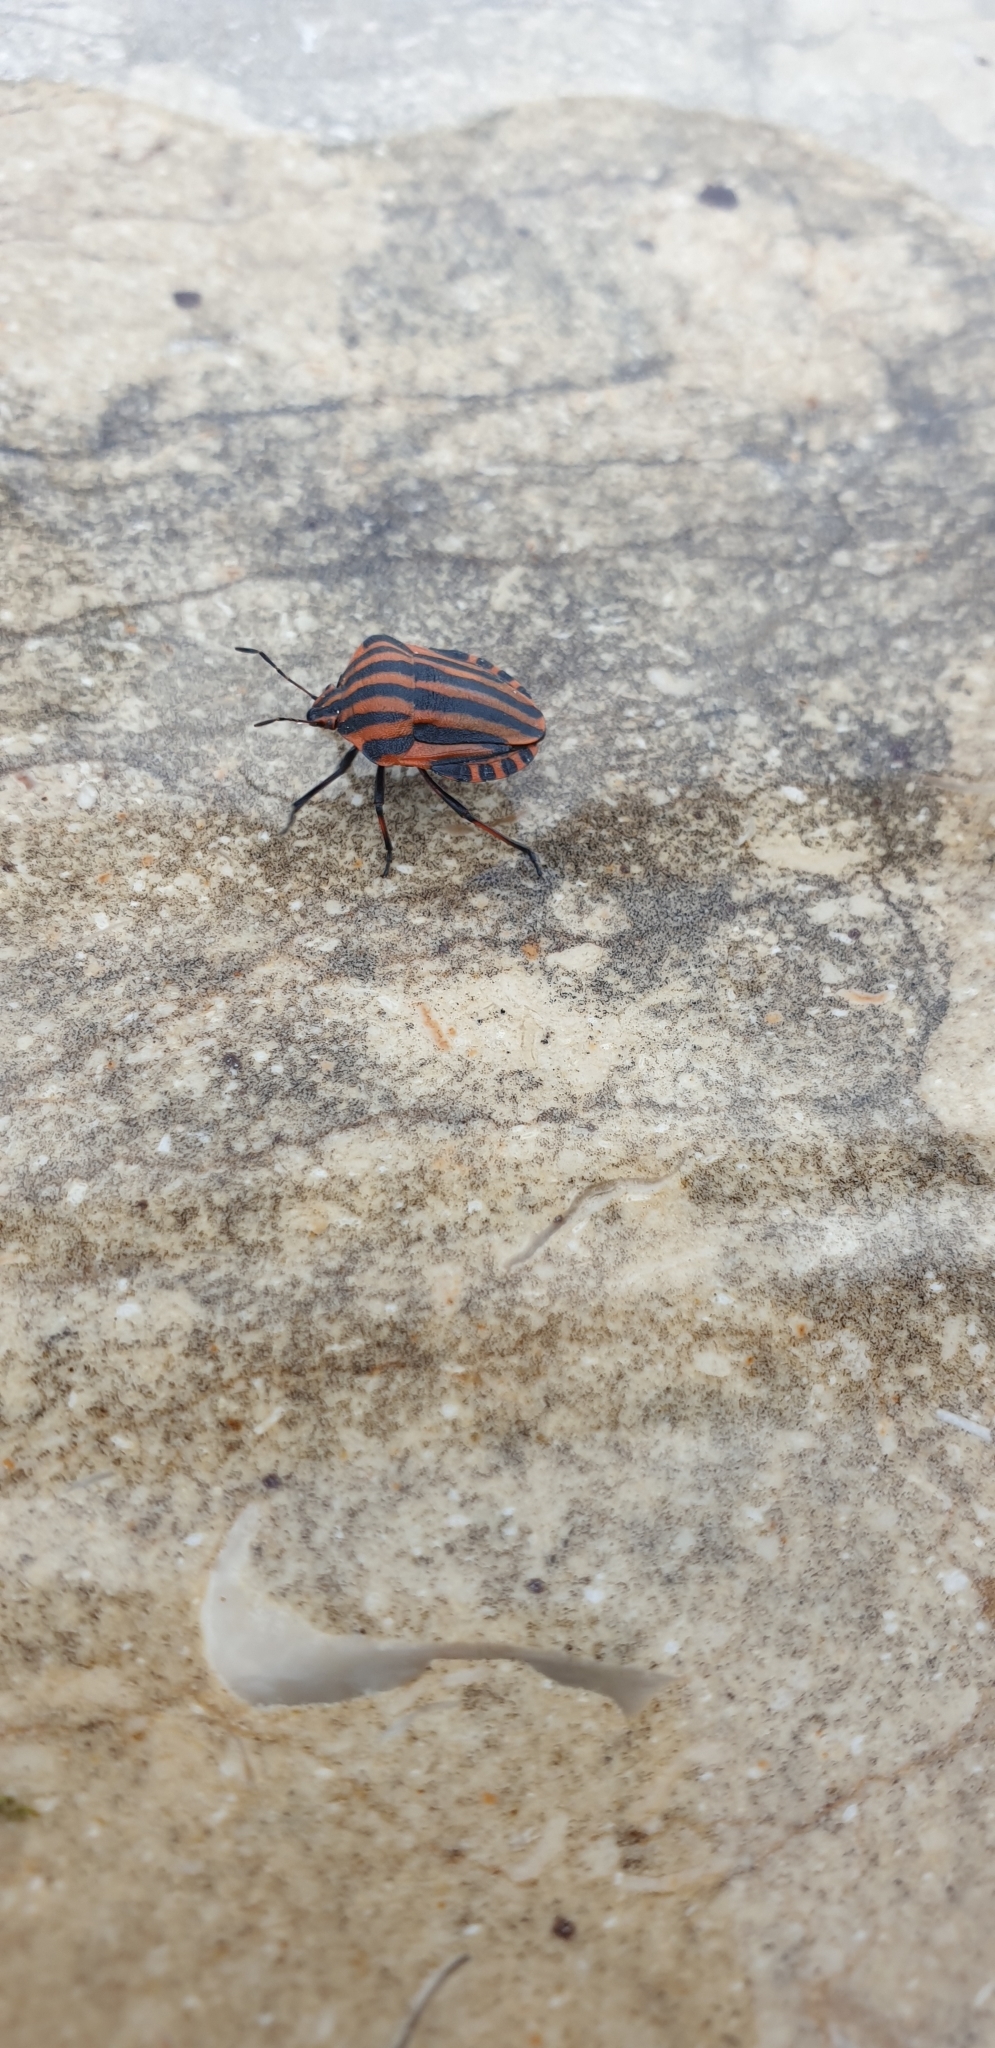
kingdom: Animalia
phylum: Arthropoda
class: Insecta
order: Hemiptera
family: Pentatomidae
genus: Graphosoma
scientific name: Graphosoma italicum
